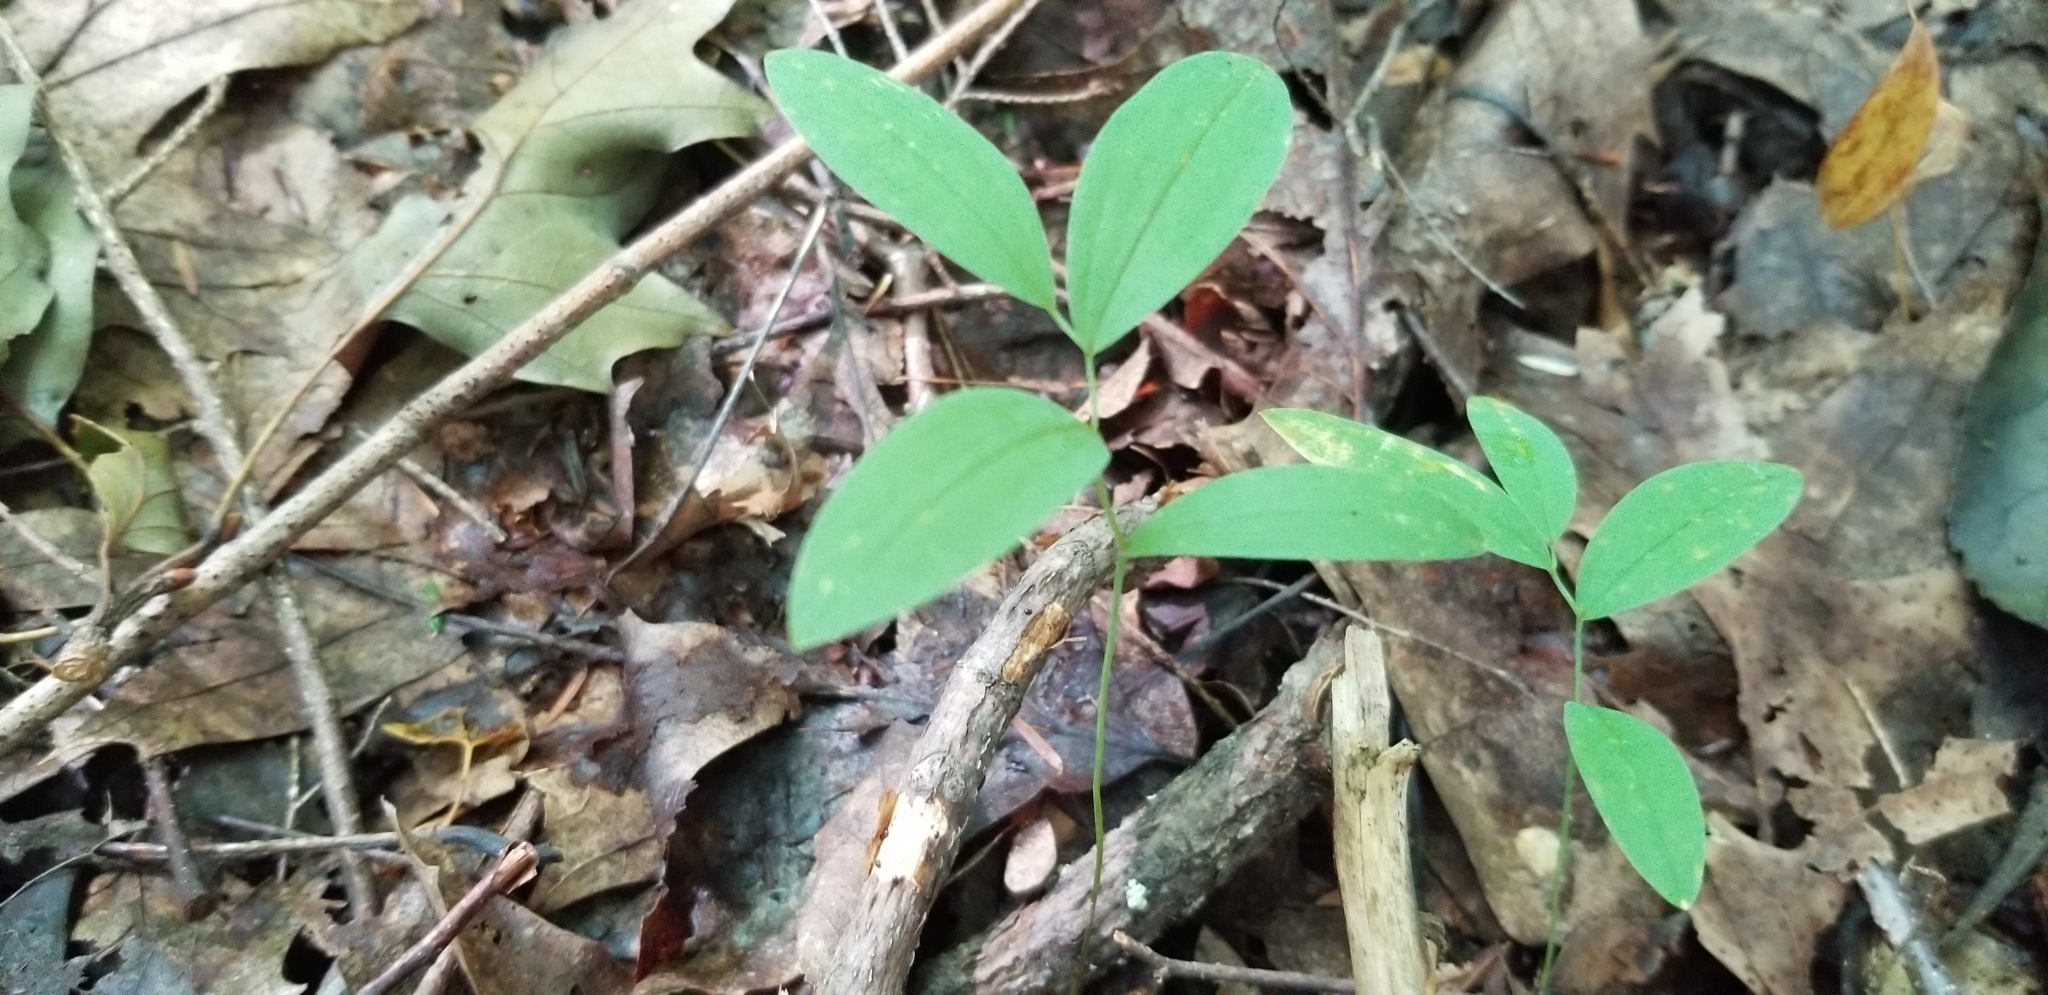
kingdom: Plantae
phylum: Tracheophyta
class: Liliopsida
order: Liliales
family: Colchicaceae
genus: Uvularia
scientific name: Uvularia sessilifolia
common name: Straw-lily
